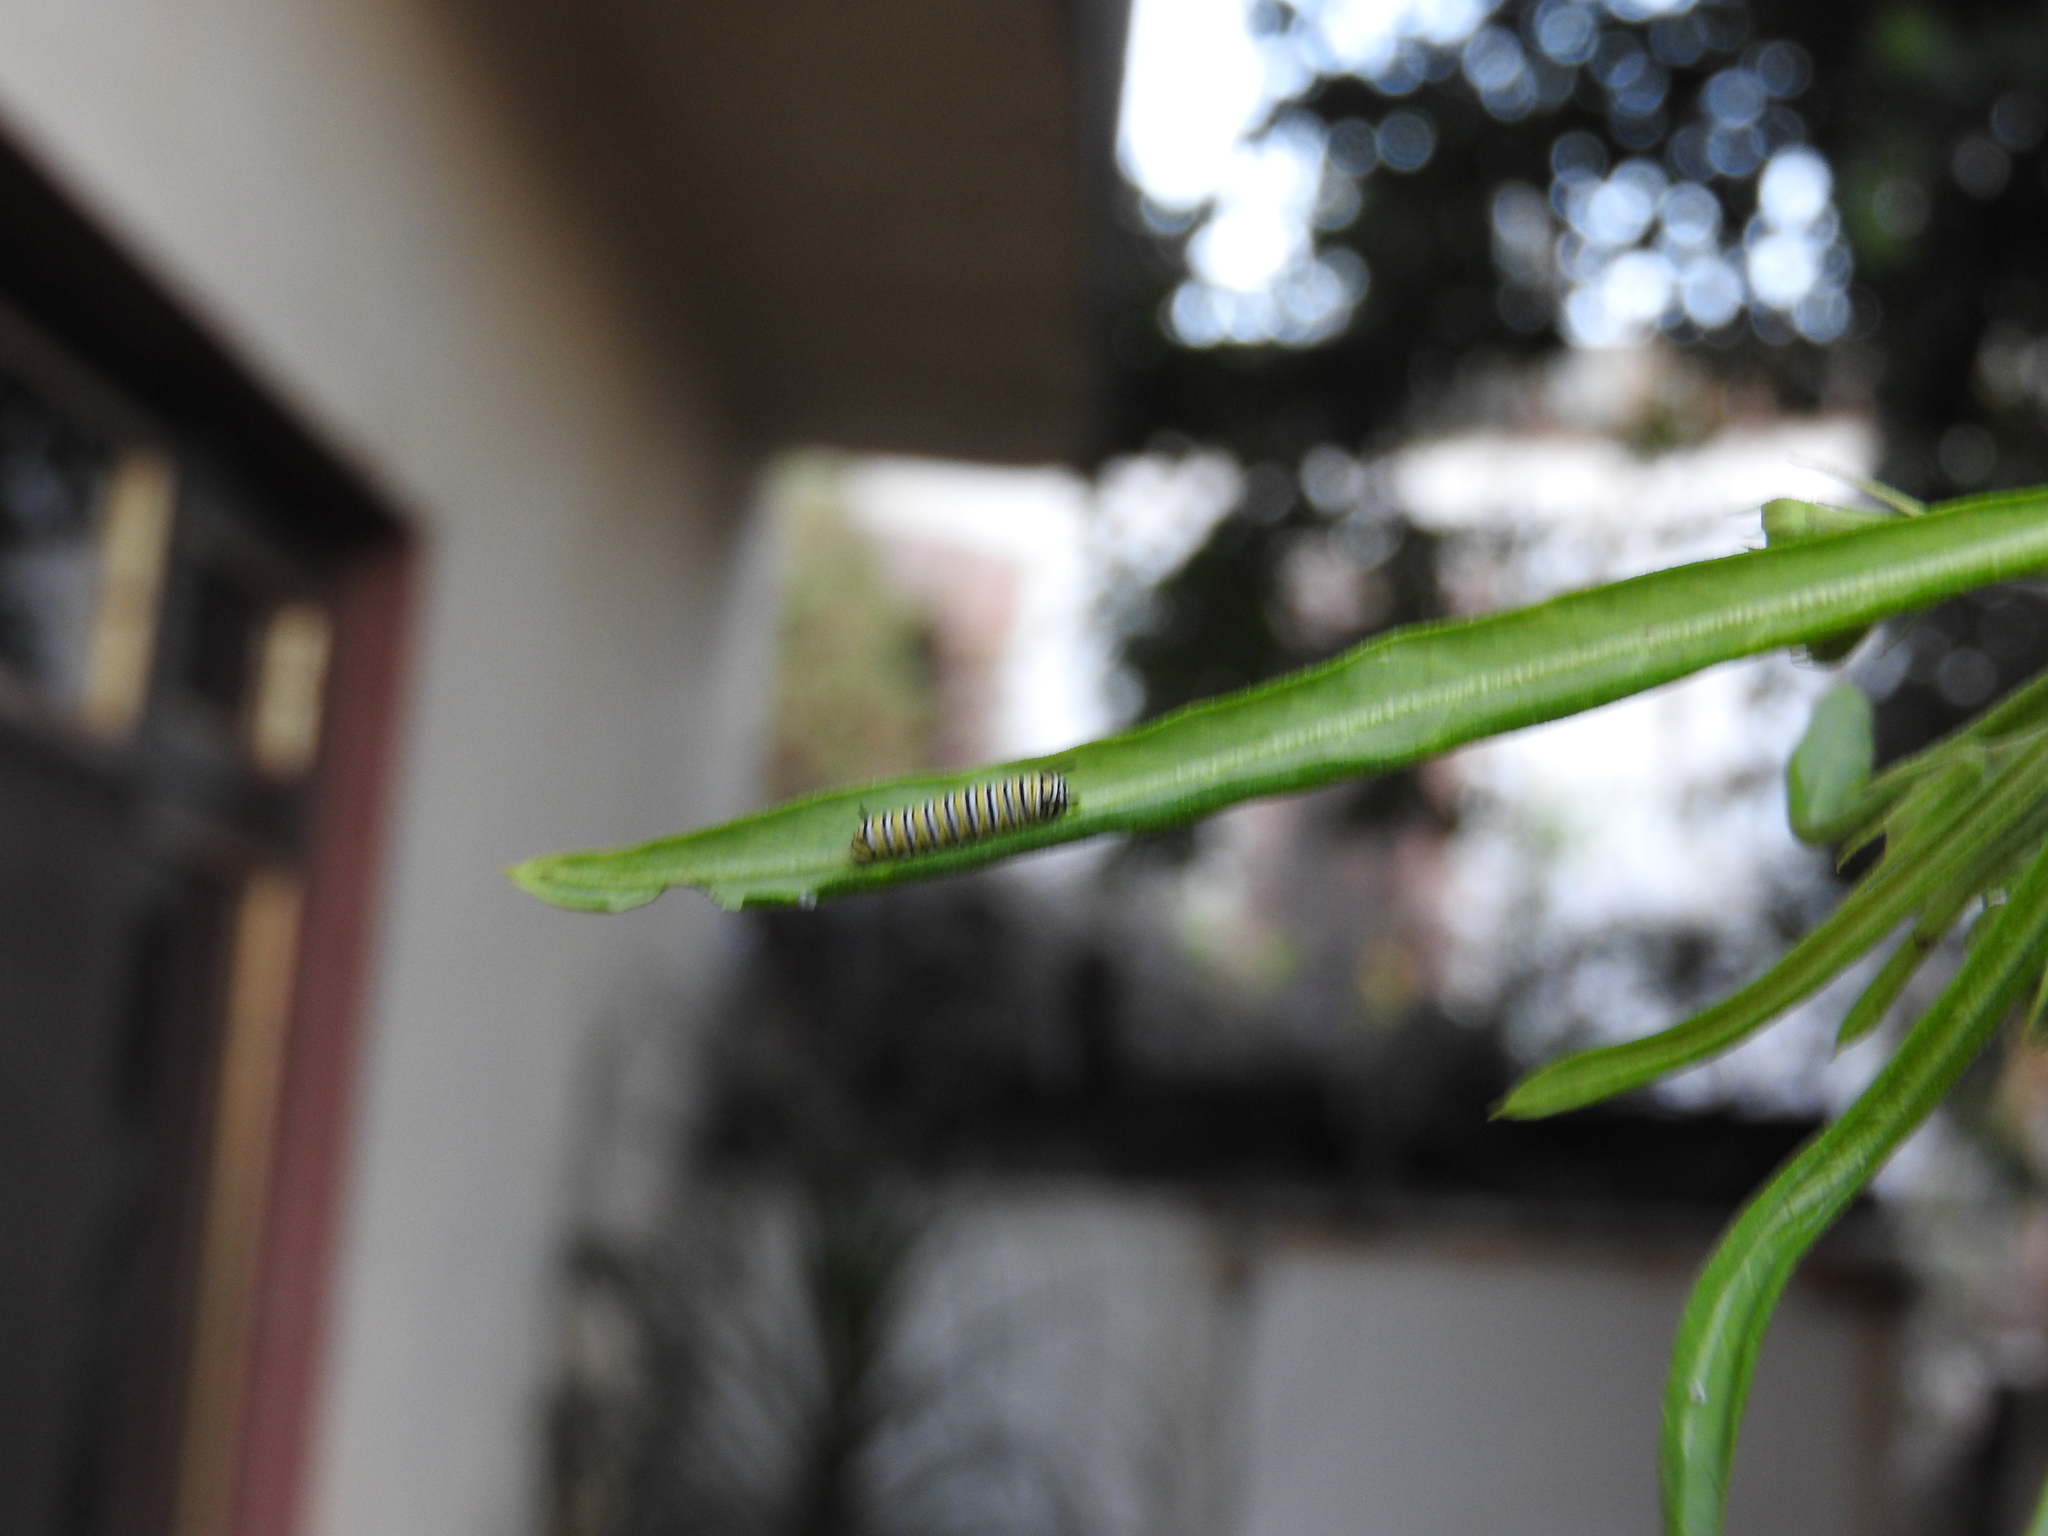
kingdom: Animalia
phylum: Arthropoda
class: Insecta
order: Lepidoptera
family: Nymphalidae
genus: Danaus
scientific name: Danaus plexippus
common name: Monarch
